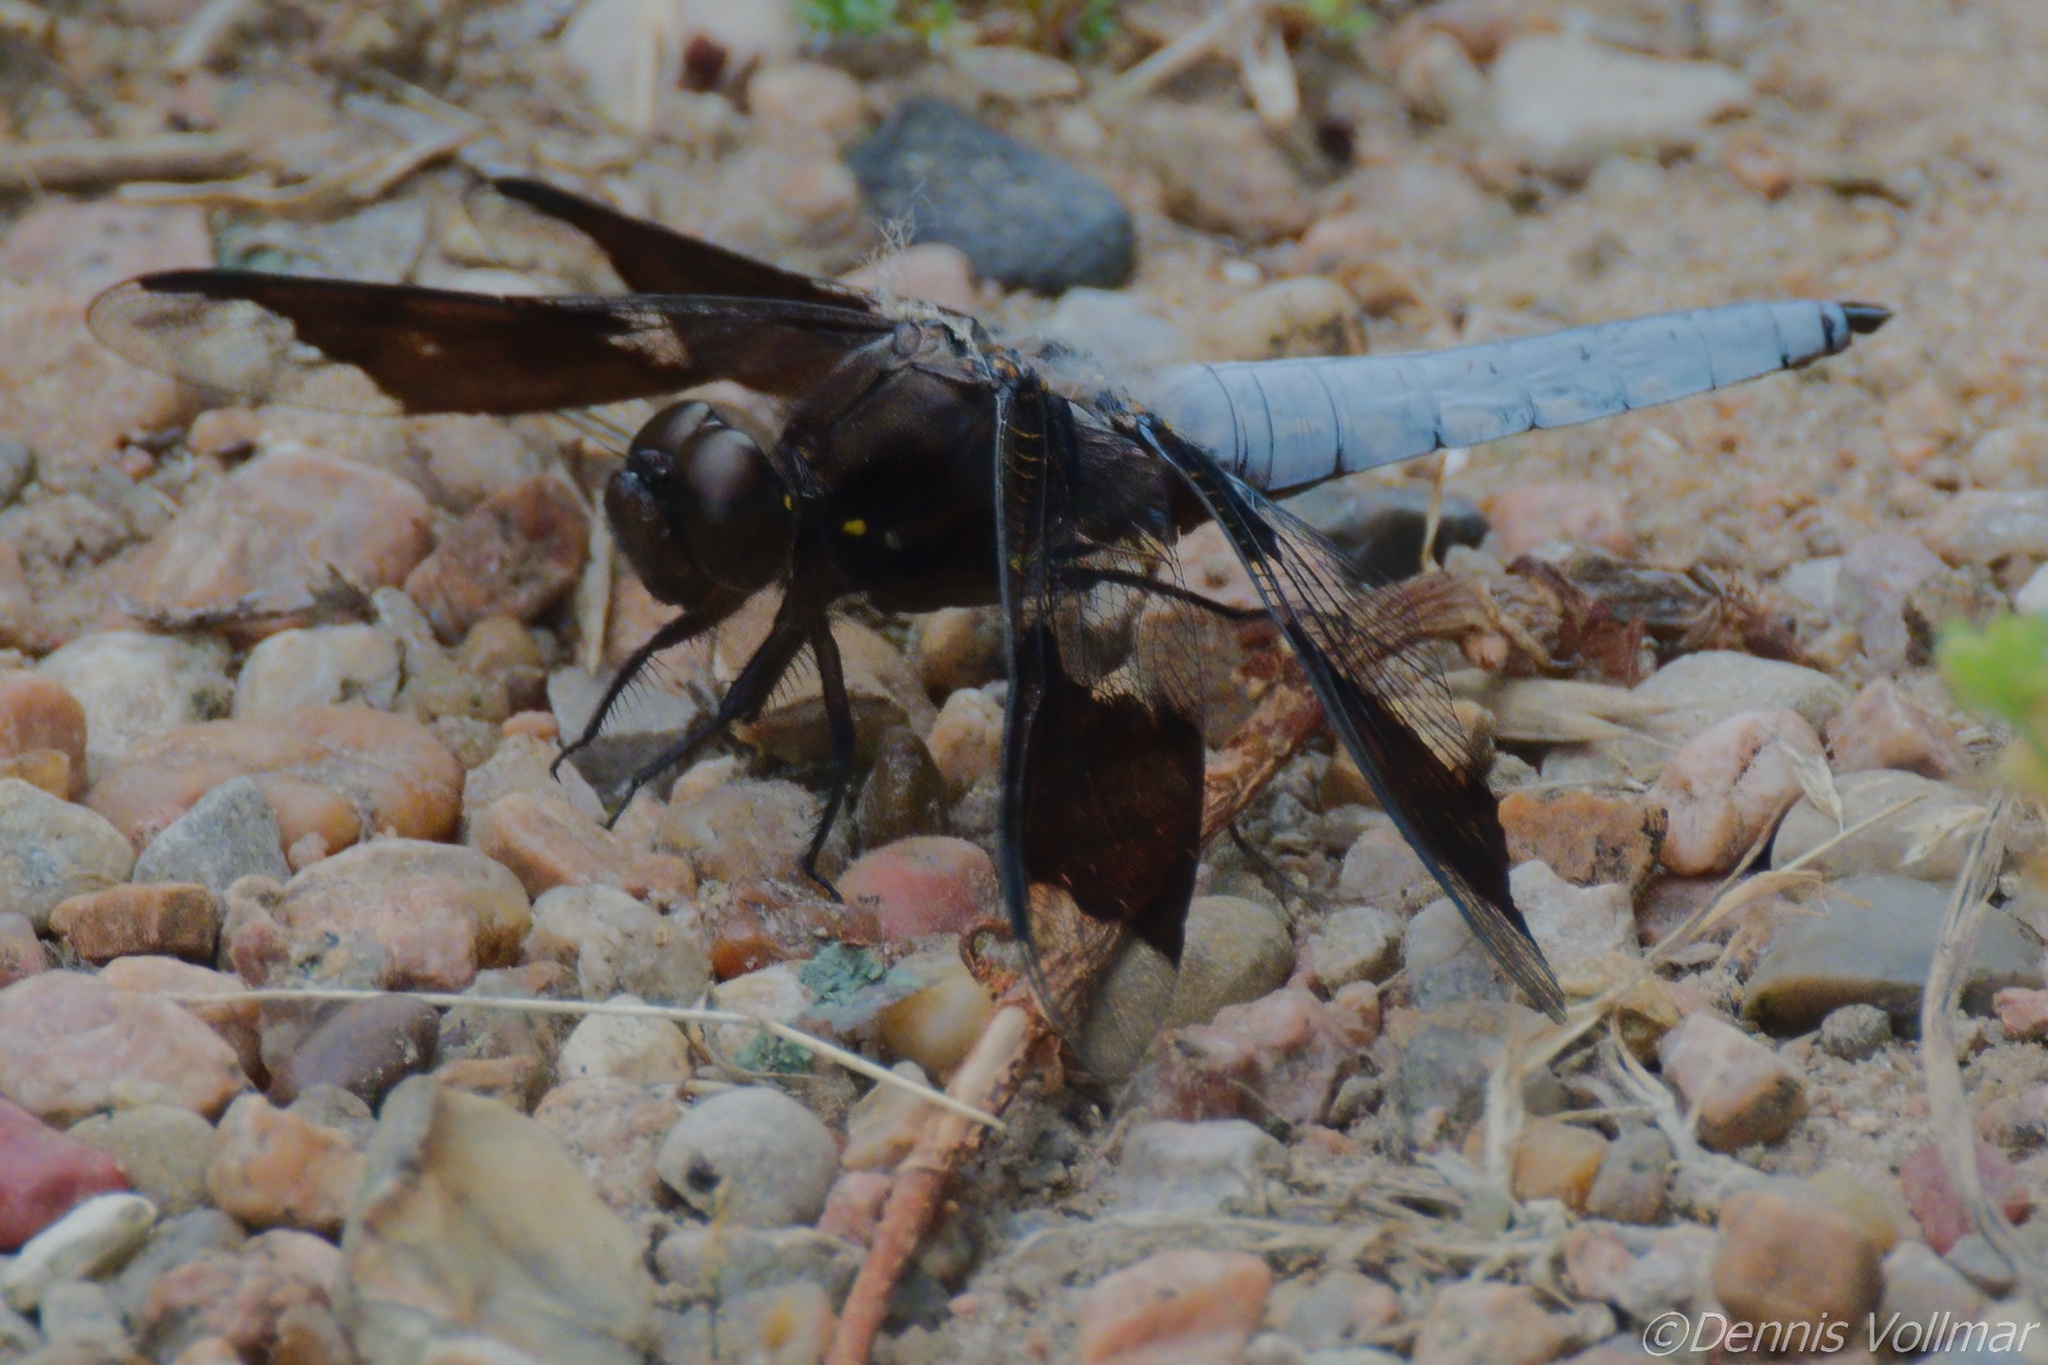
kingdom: Animalia
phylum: Arthropoda
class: Insecta
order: Odonata
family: Libellulidae
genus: Plathemis
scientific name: Plathemis lydia
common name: Common whitetail
